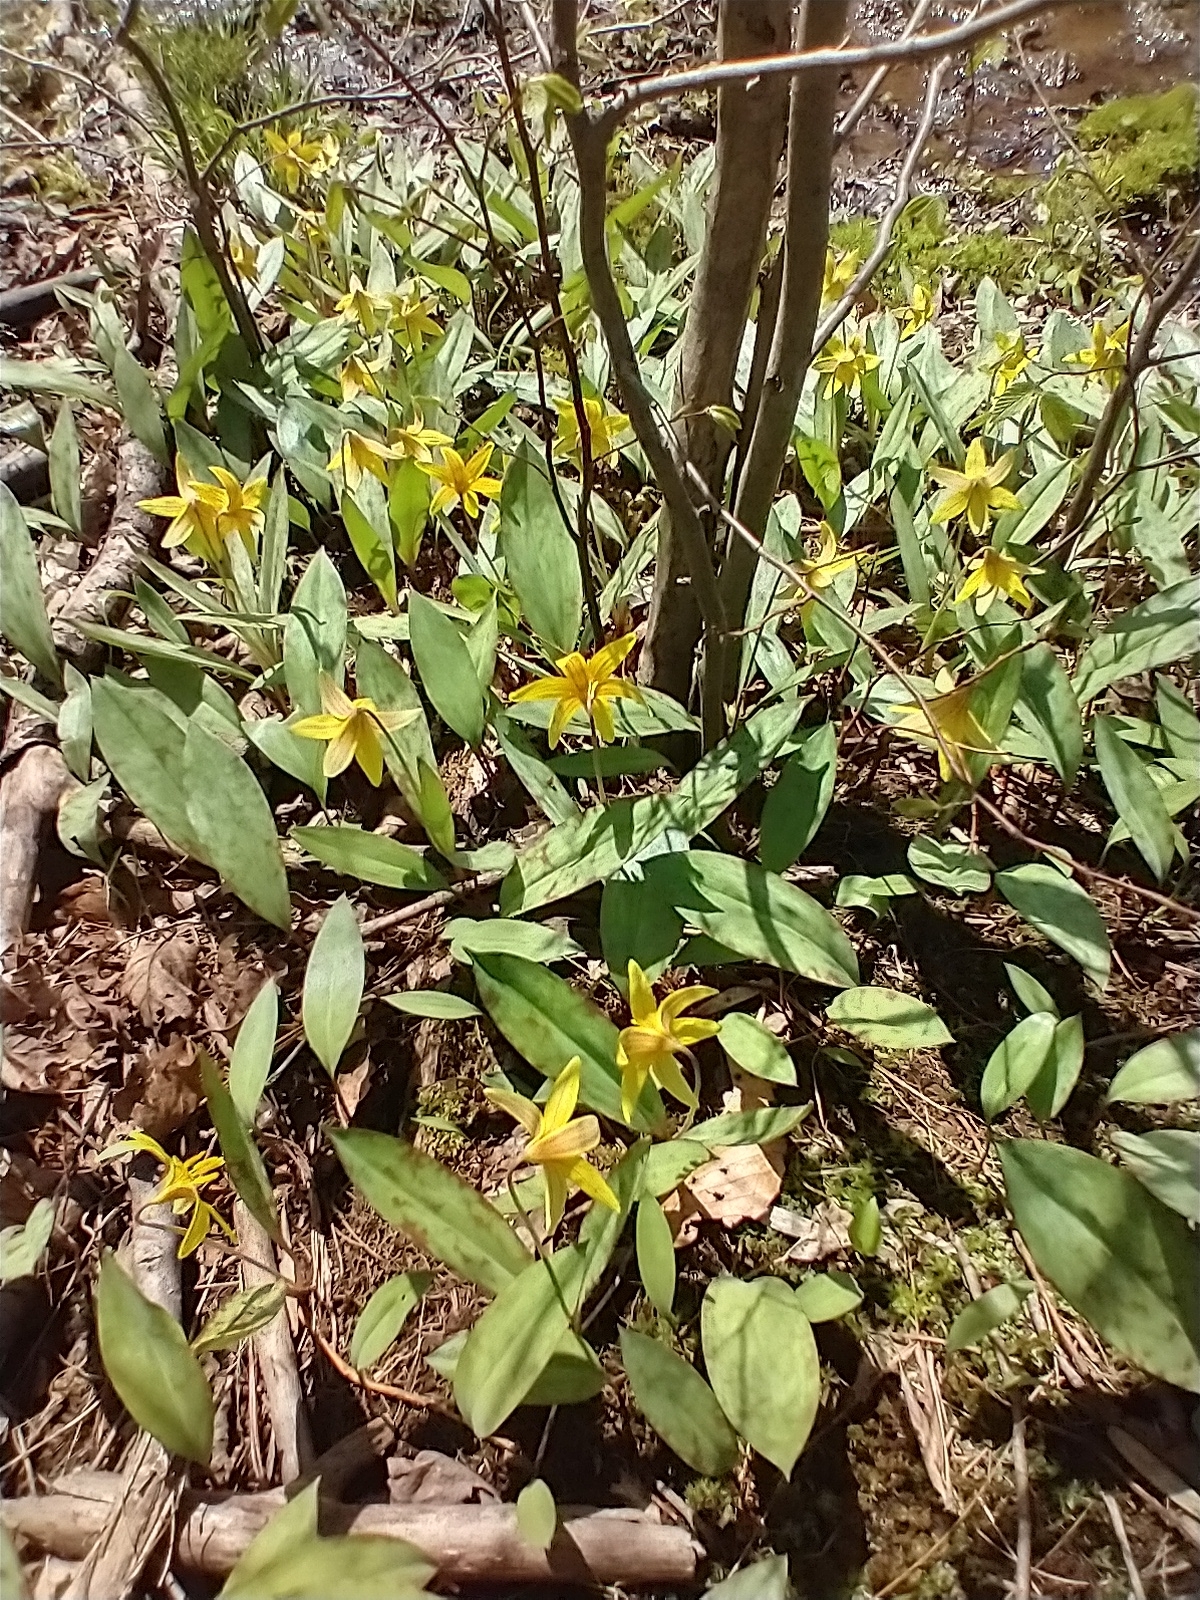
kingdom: Plantae
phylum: Tracheophyta
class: Liliopsida
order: Liliales
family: Liliaceae
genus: Erythronium
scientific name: Erythronium americanum
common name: Yellow adder's-tongue
